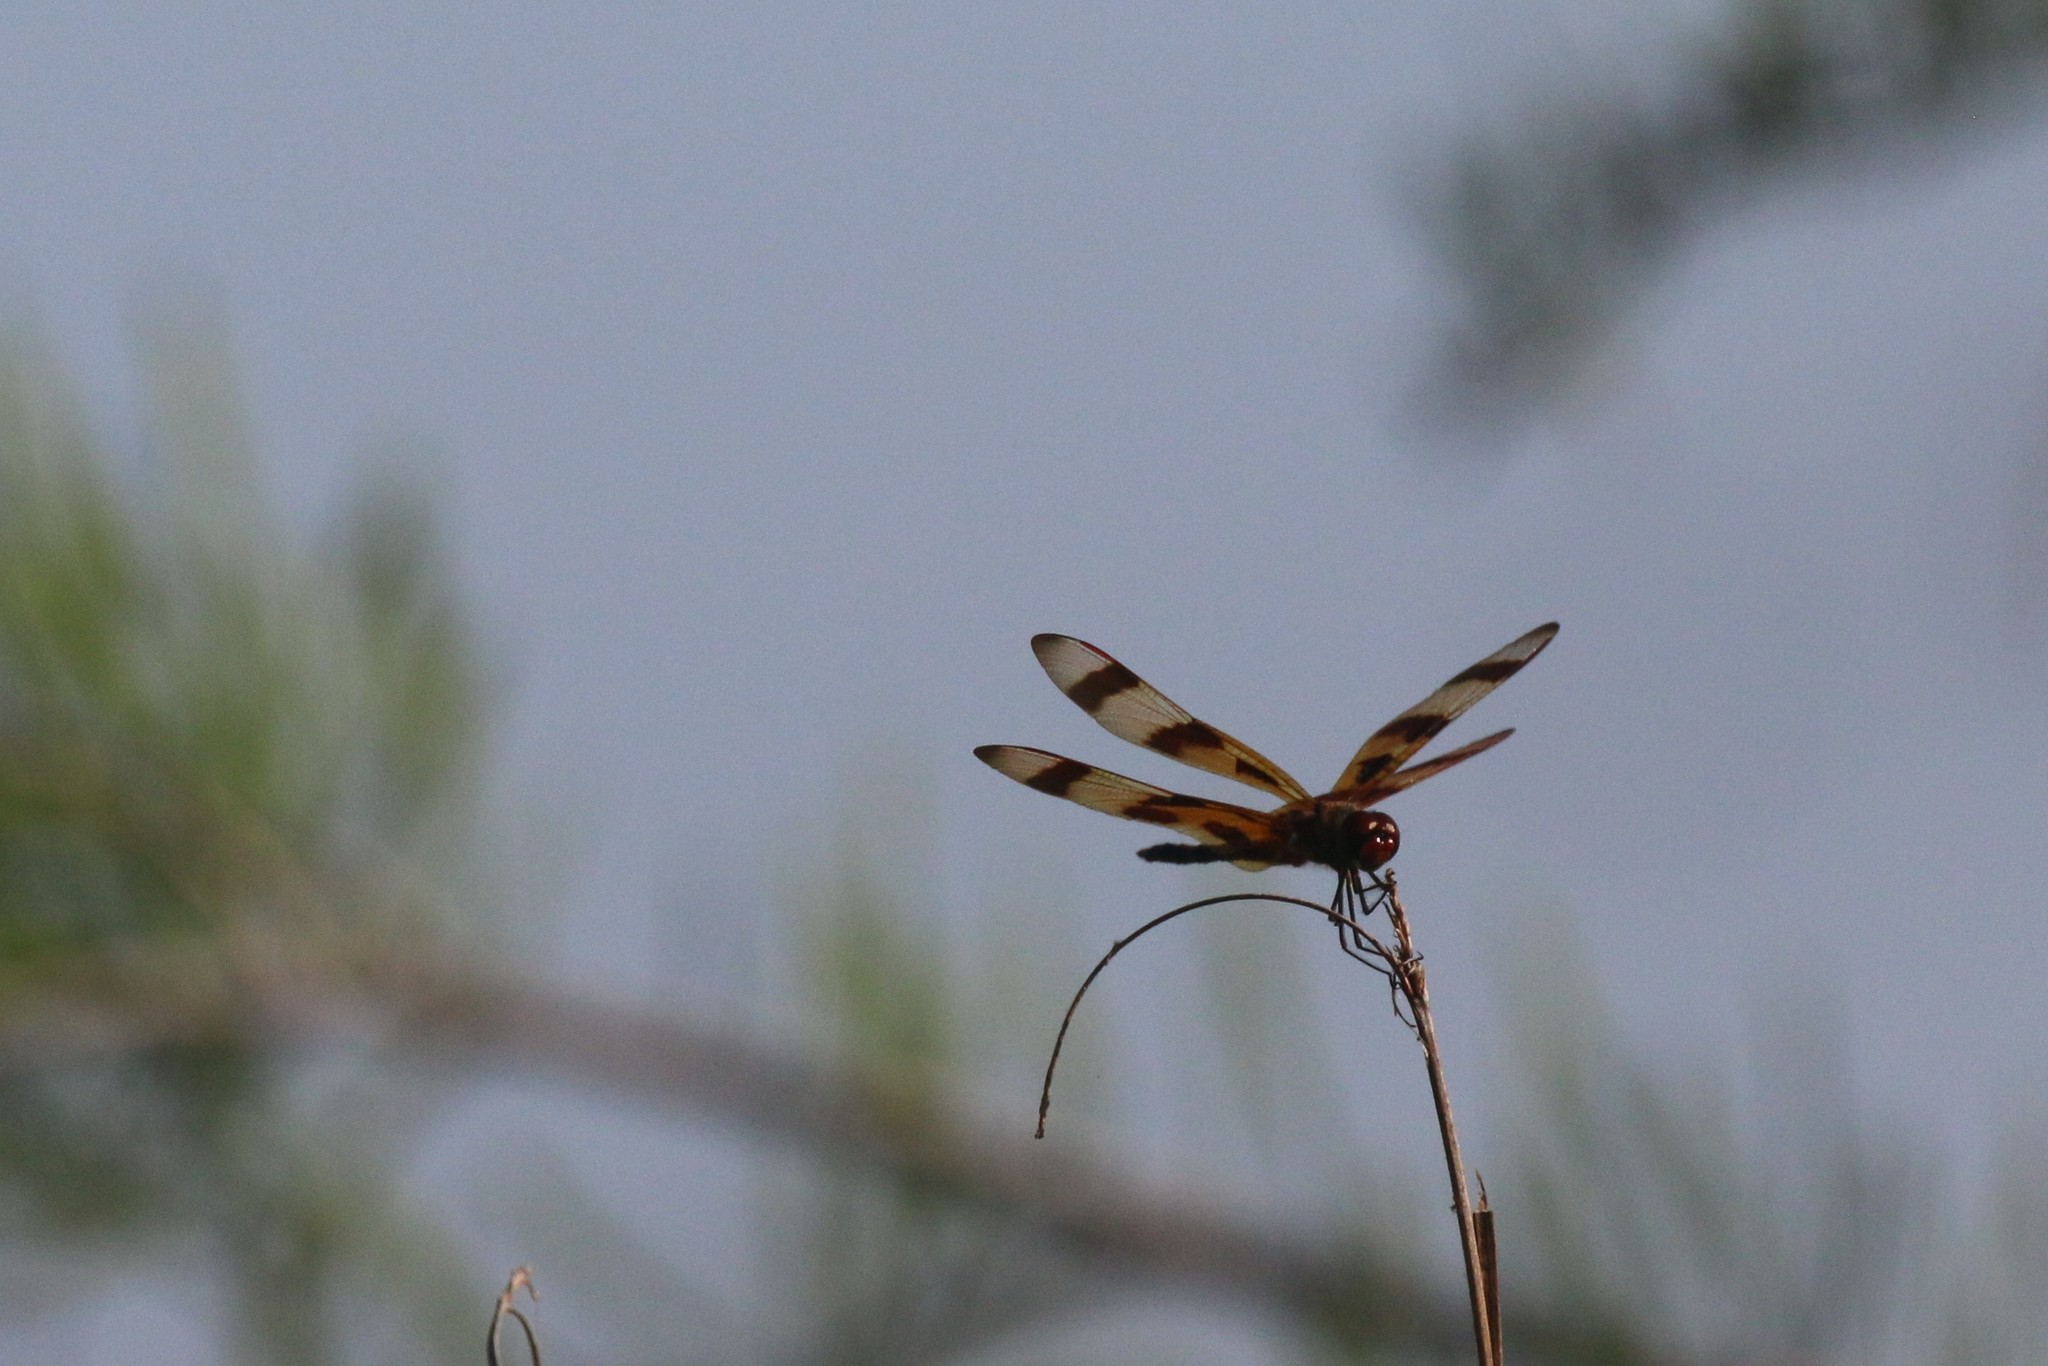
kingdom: Animalia
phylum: Arthropoda
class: Insecta
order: Odonata
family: Libellulidae
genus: Celithemis
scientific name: Celithemis eponina
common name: Halloween pennant
